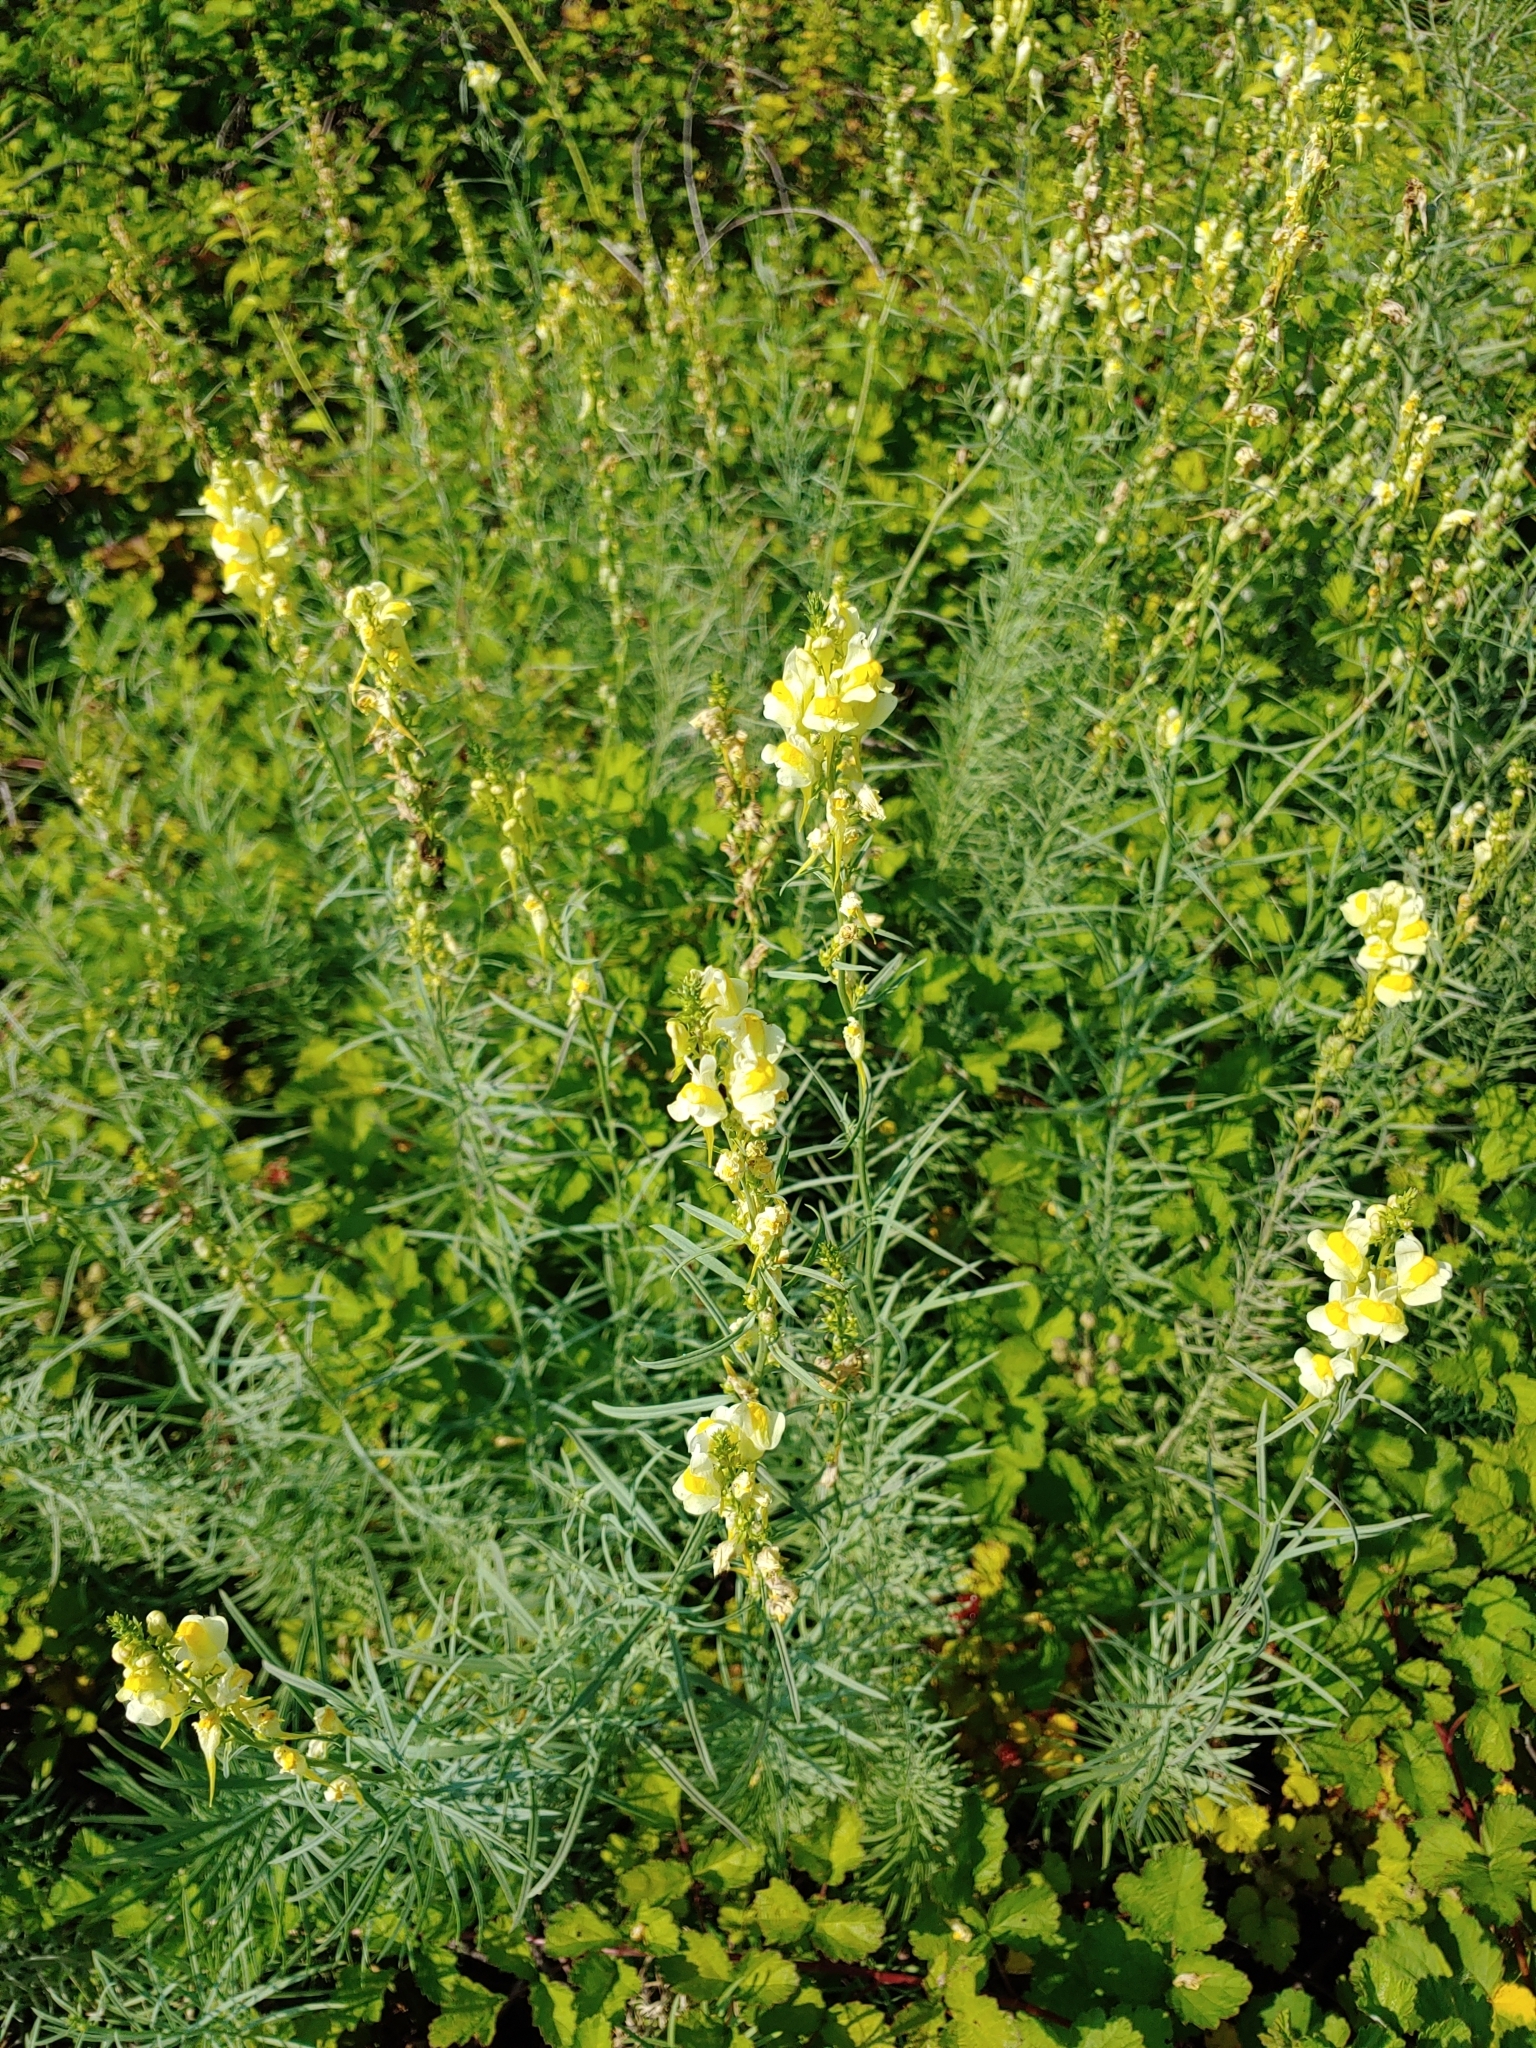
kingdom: Plantae
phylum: Tracheophyta
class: Magnoliopsida
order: Lamiales
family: Plantaginaceae
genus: Linaria
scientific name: Linaria vulgaris
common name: Butter and eggs
